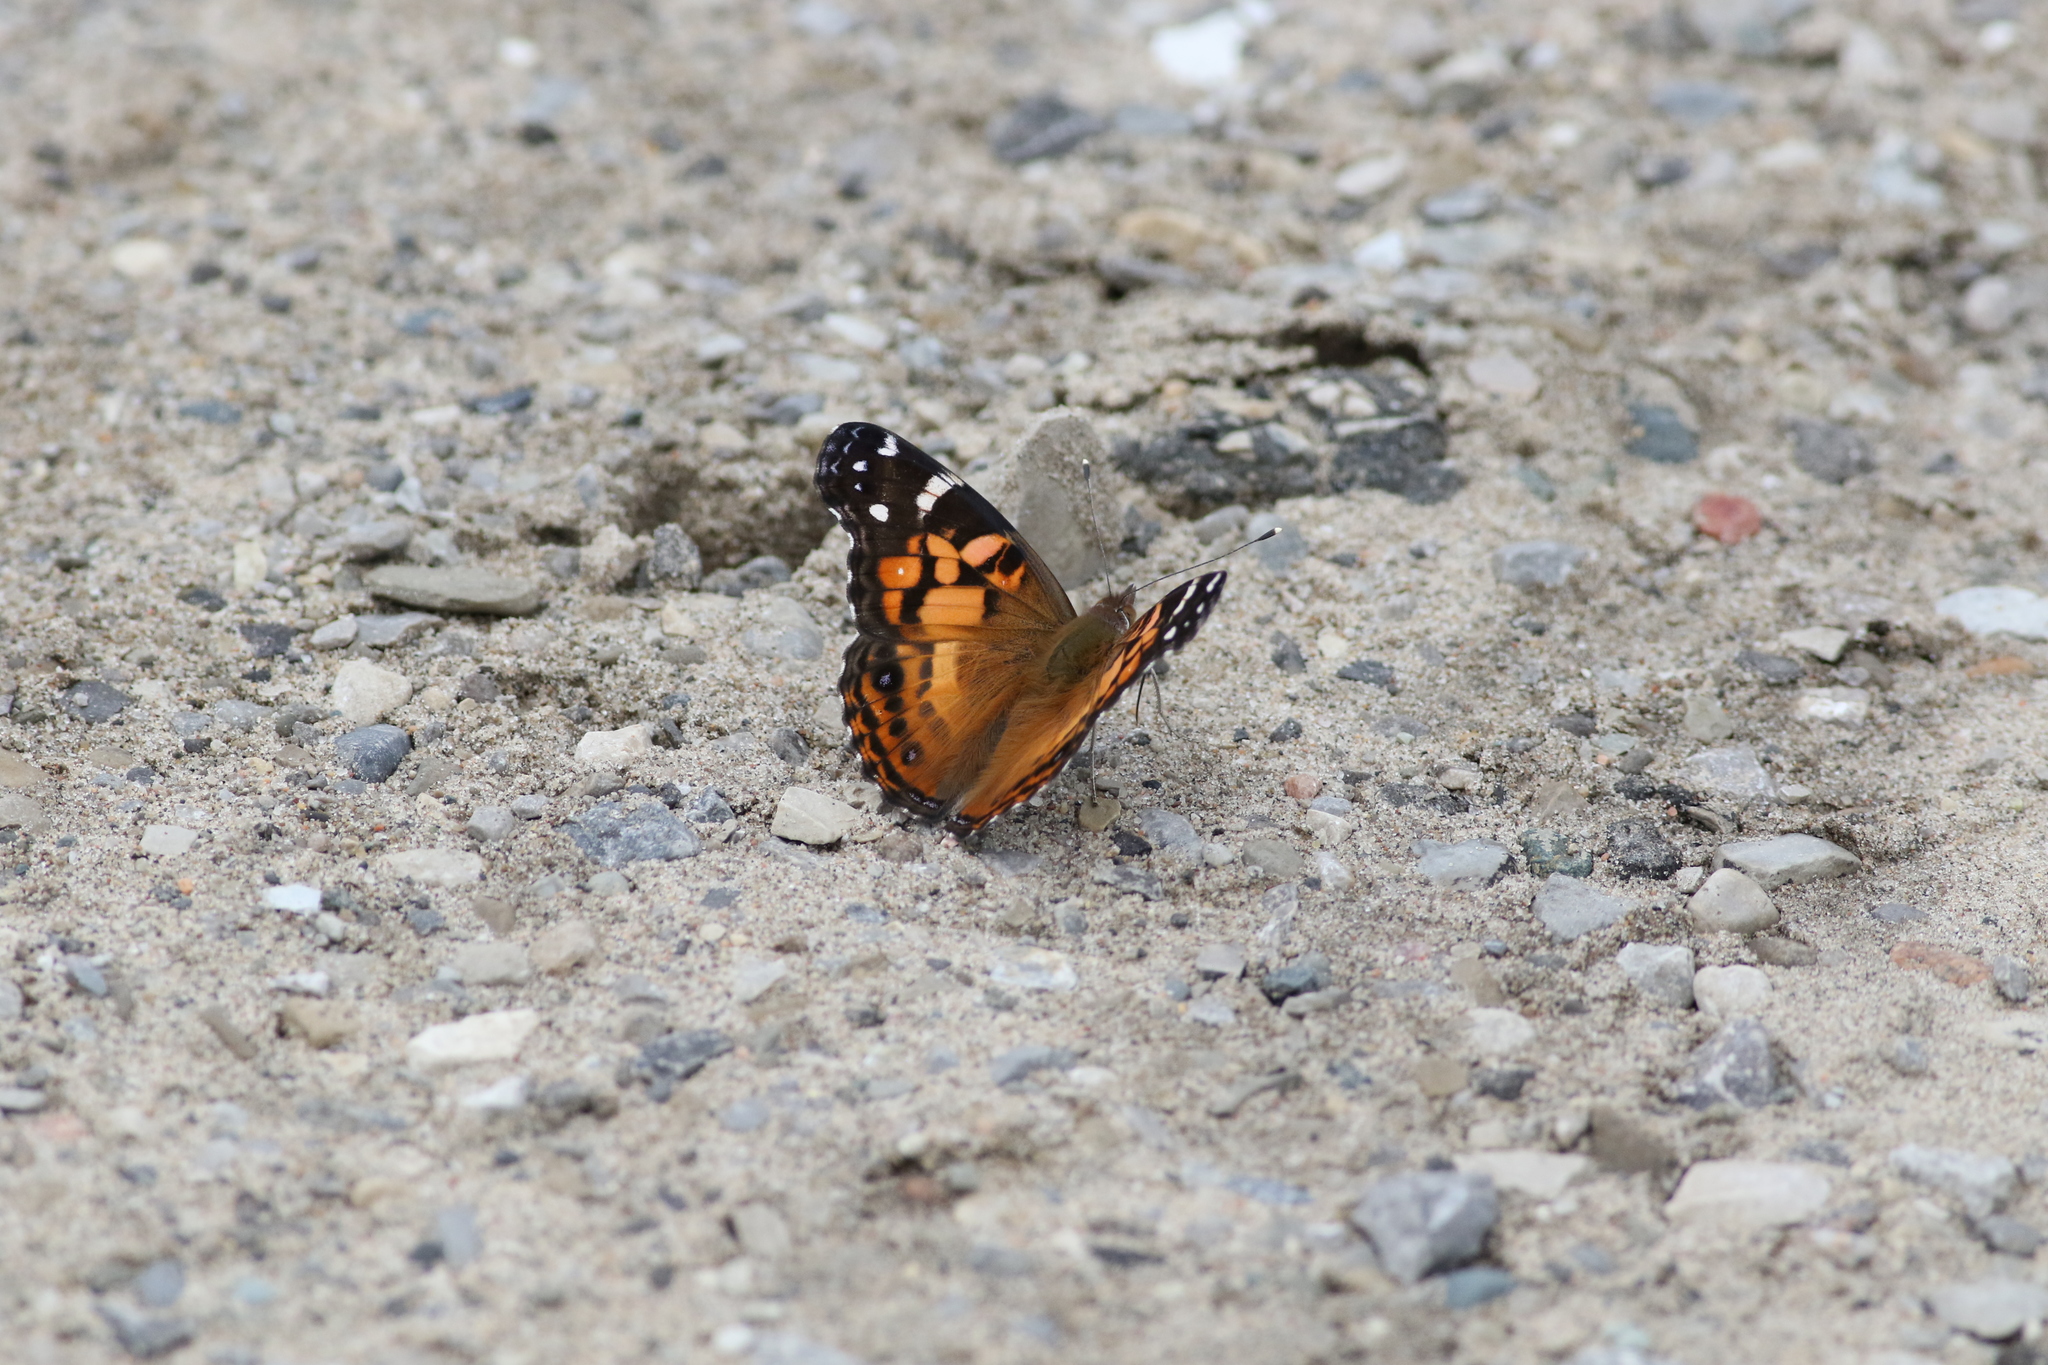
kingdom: Animalia
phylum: Arthropoda
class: Insecta
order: Lepidoptera
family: Nymphalidae
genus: Vanessa
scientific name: Vanessa virginiensis
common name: American lady
